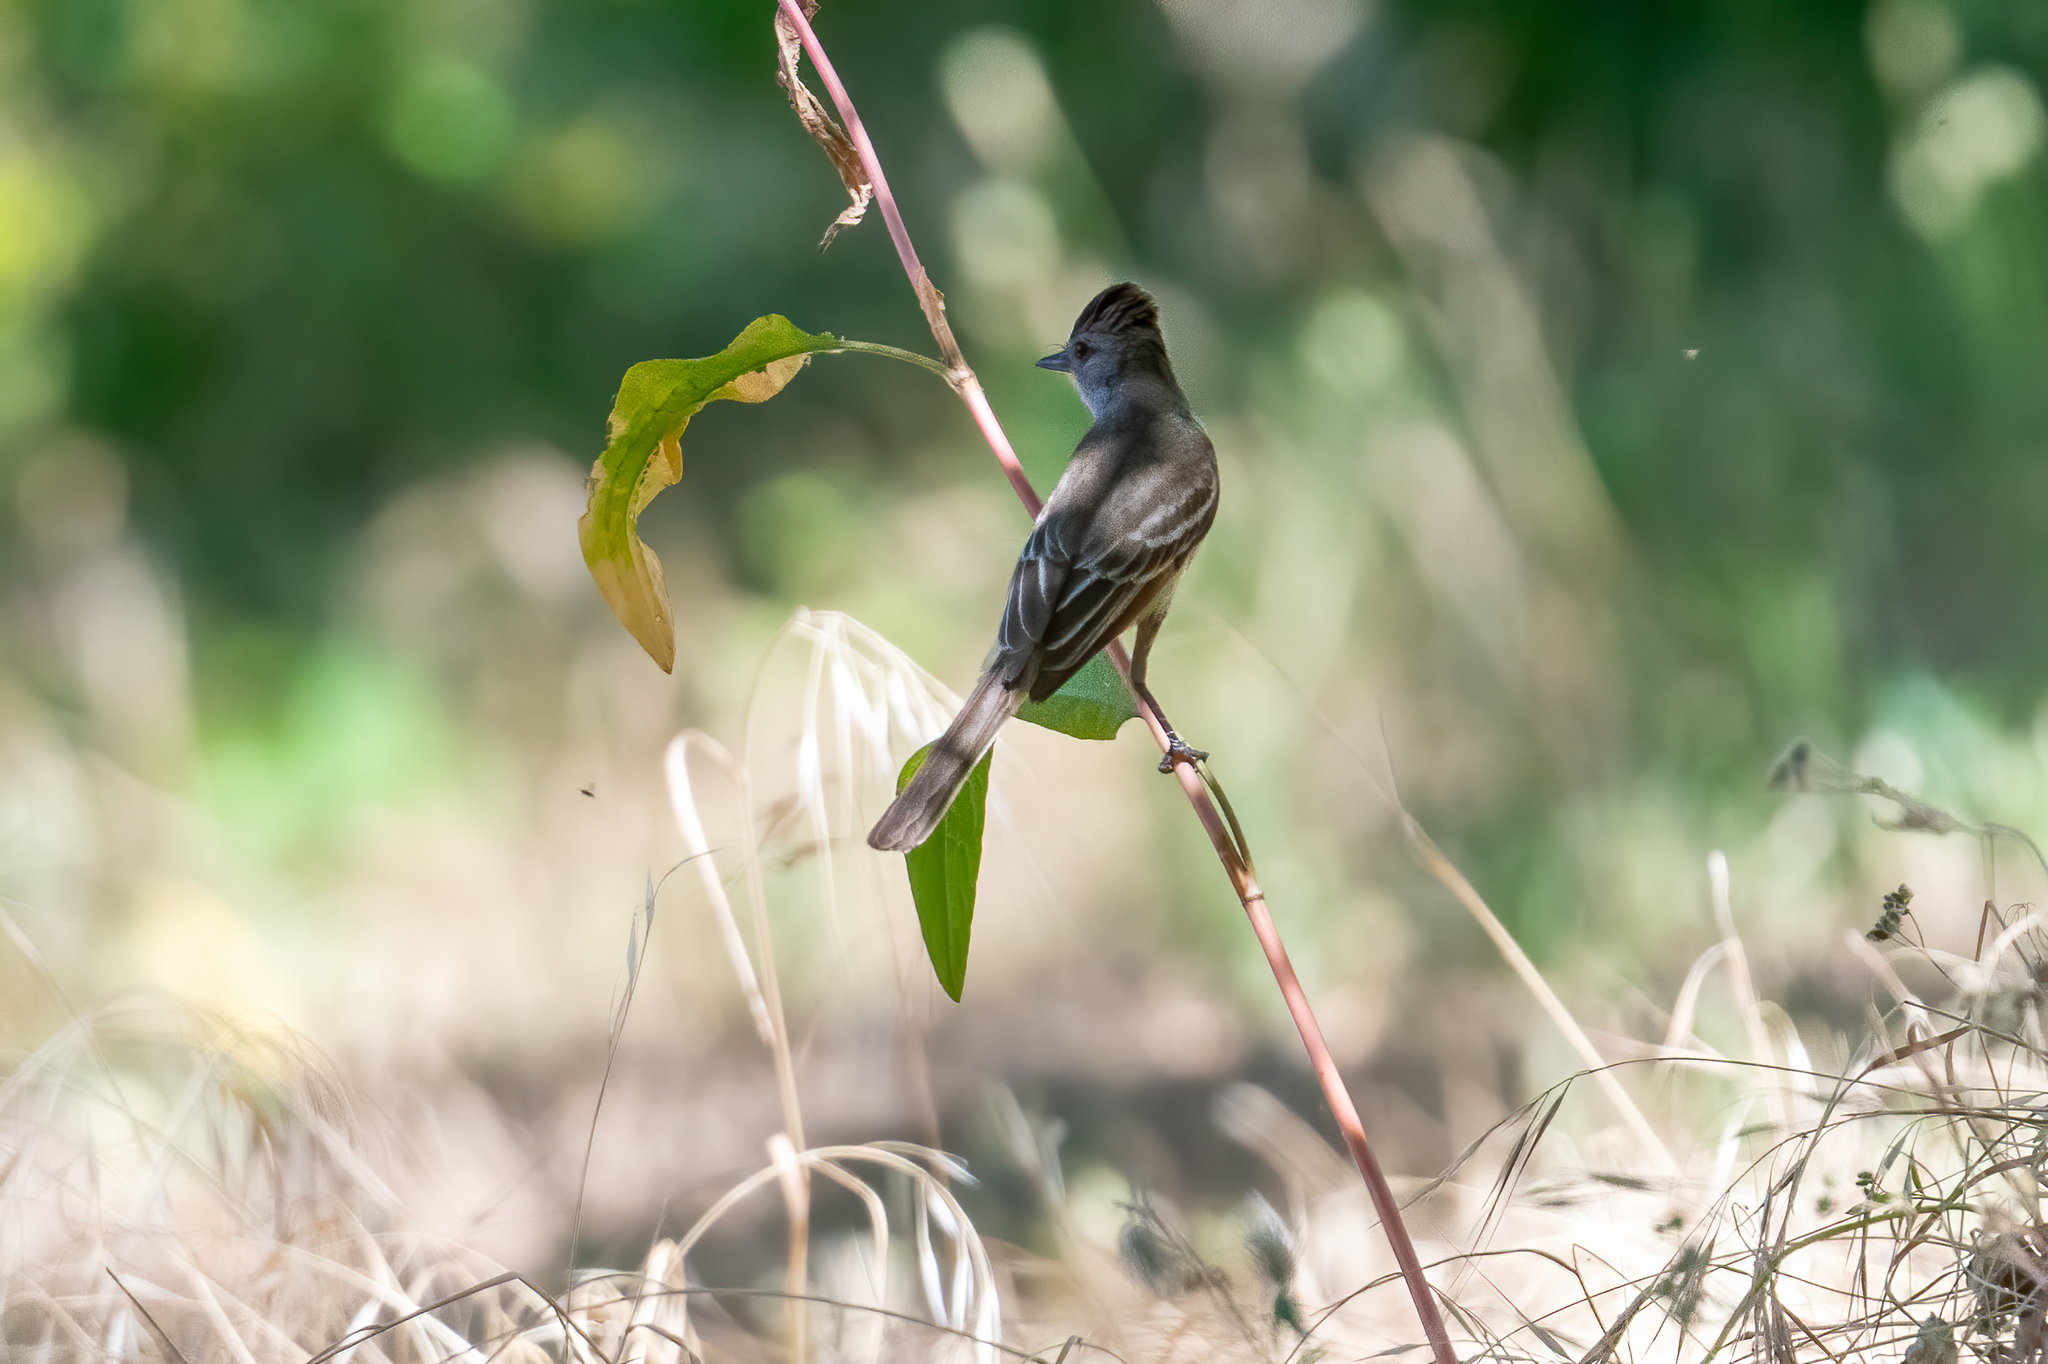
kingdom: Animalia
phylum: Chordata
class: Aves
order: Passeriformes
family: Tyrannidae
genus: Myiarchus
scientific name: Myiarchus cinerascens
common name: Ash-throated flycatcher
